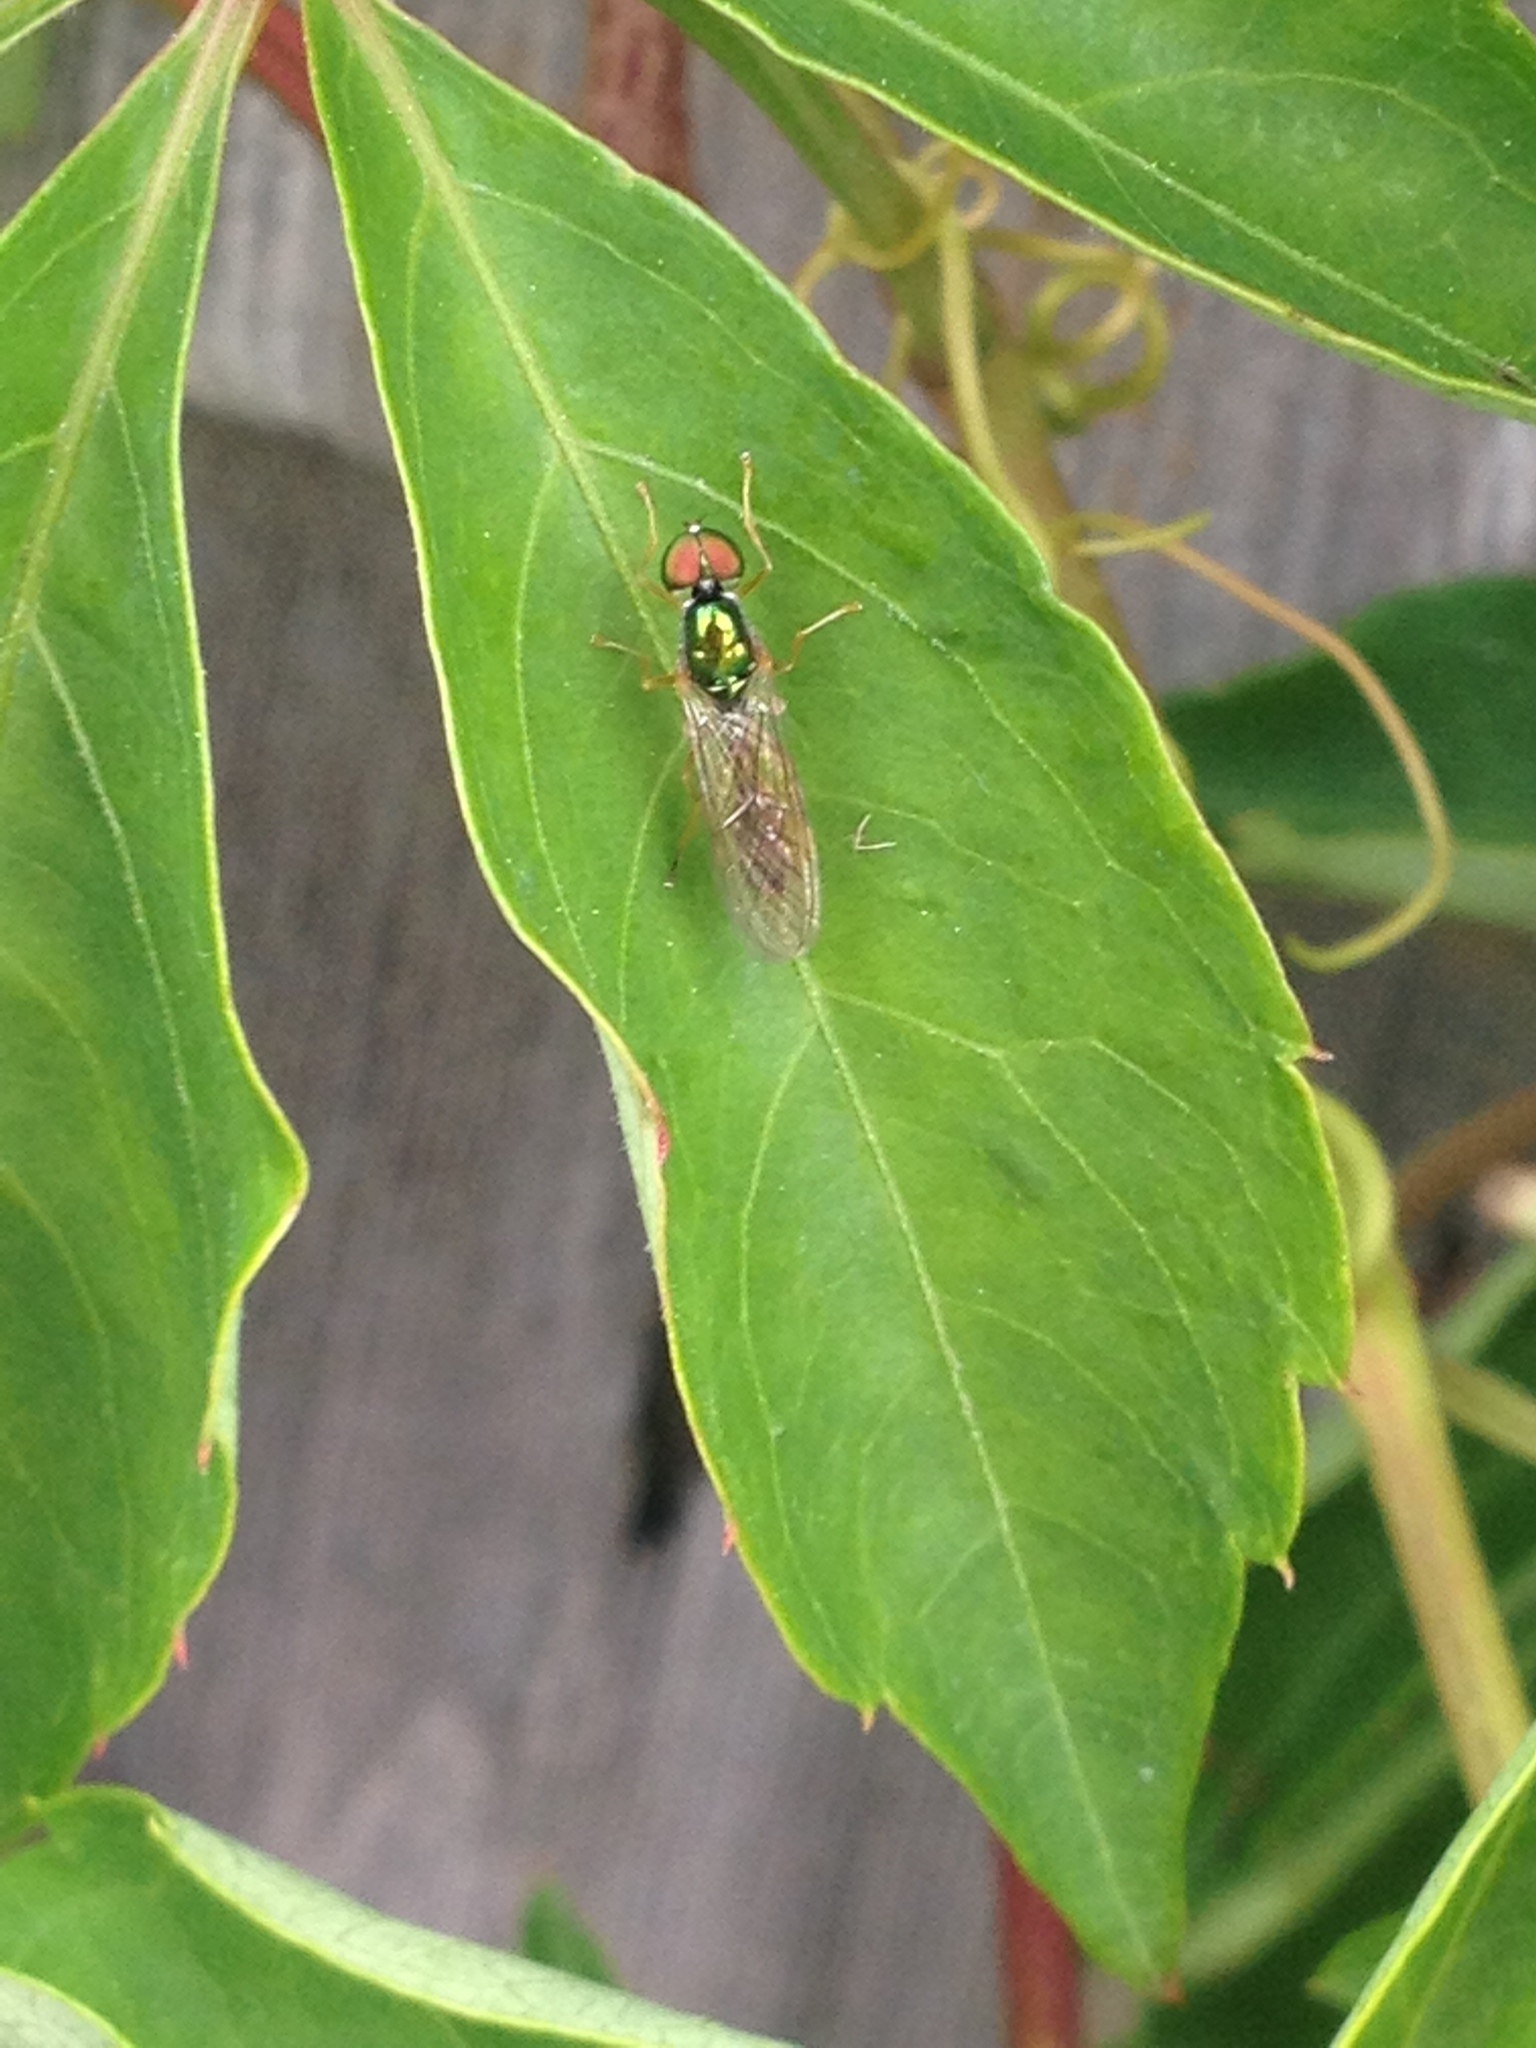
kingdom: Animalia
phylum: Arthropoda
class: Insecta
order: Diptera
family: Stratiomyidae
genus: Sargus
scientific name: Sargus fasciatus
